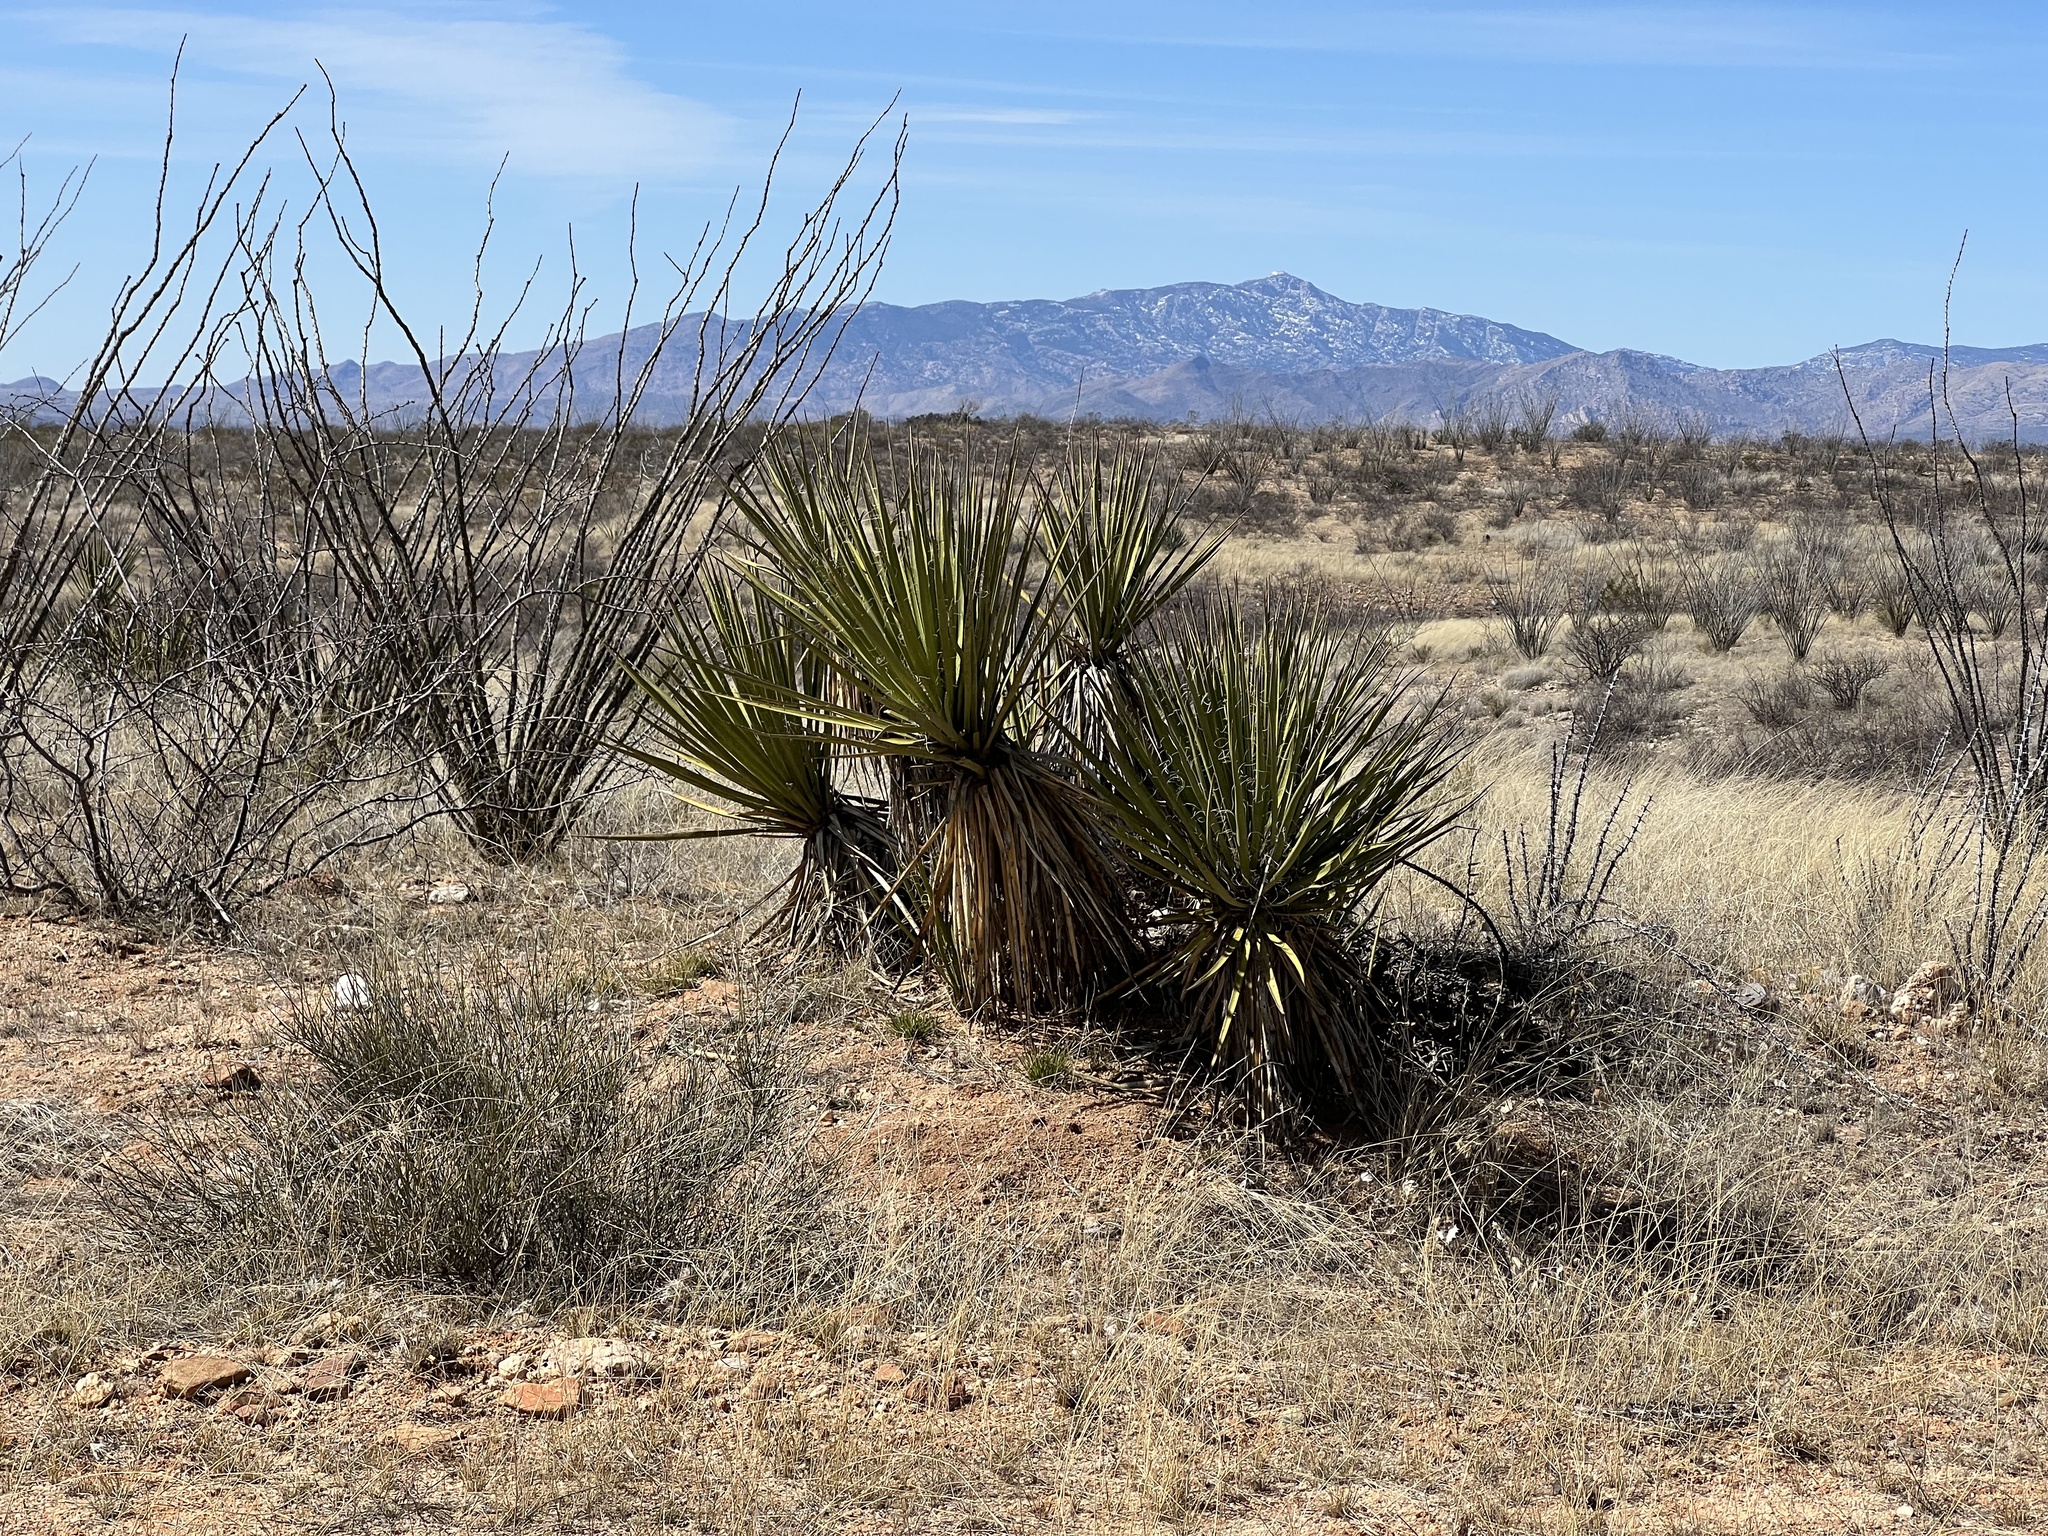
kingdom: Plantae
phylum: Tracheophyta
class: Liliopsida
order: Asparagales
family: Asparagaceae
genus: Yucca
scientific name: Yucca baccata
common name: Banana yucca
